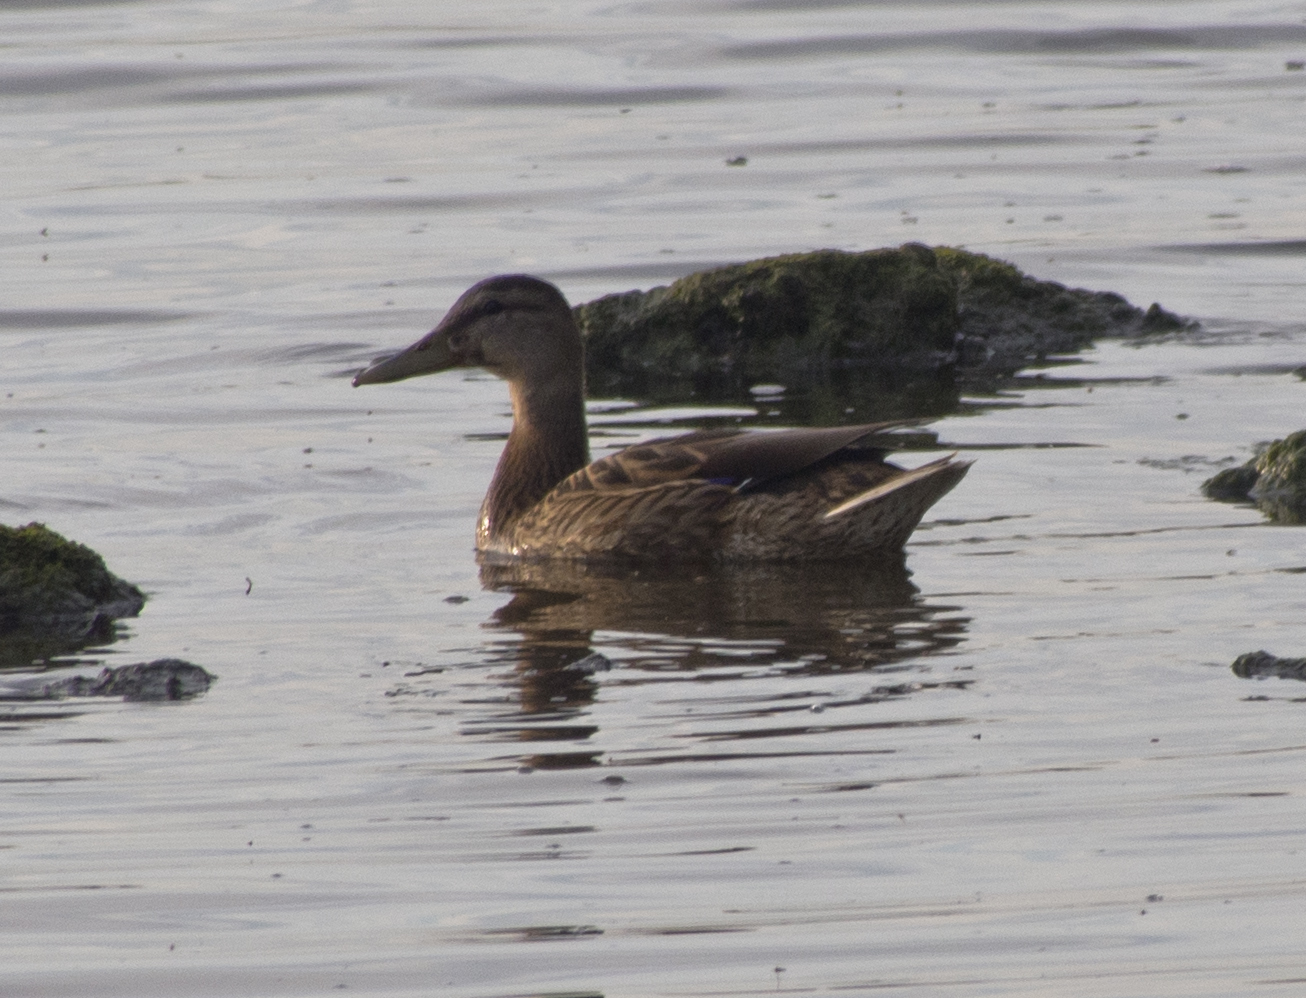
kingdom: Animalia
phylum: Chordata
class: Aves
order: Anseriformes
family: Anatidae
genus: Anas
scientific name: Anas platyrhynchos
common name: Mallard
